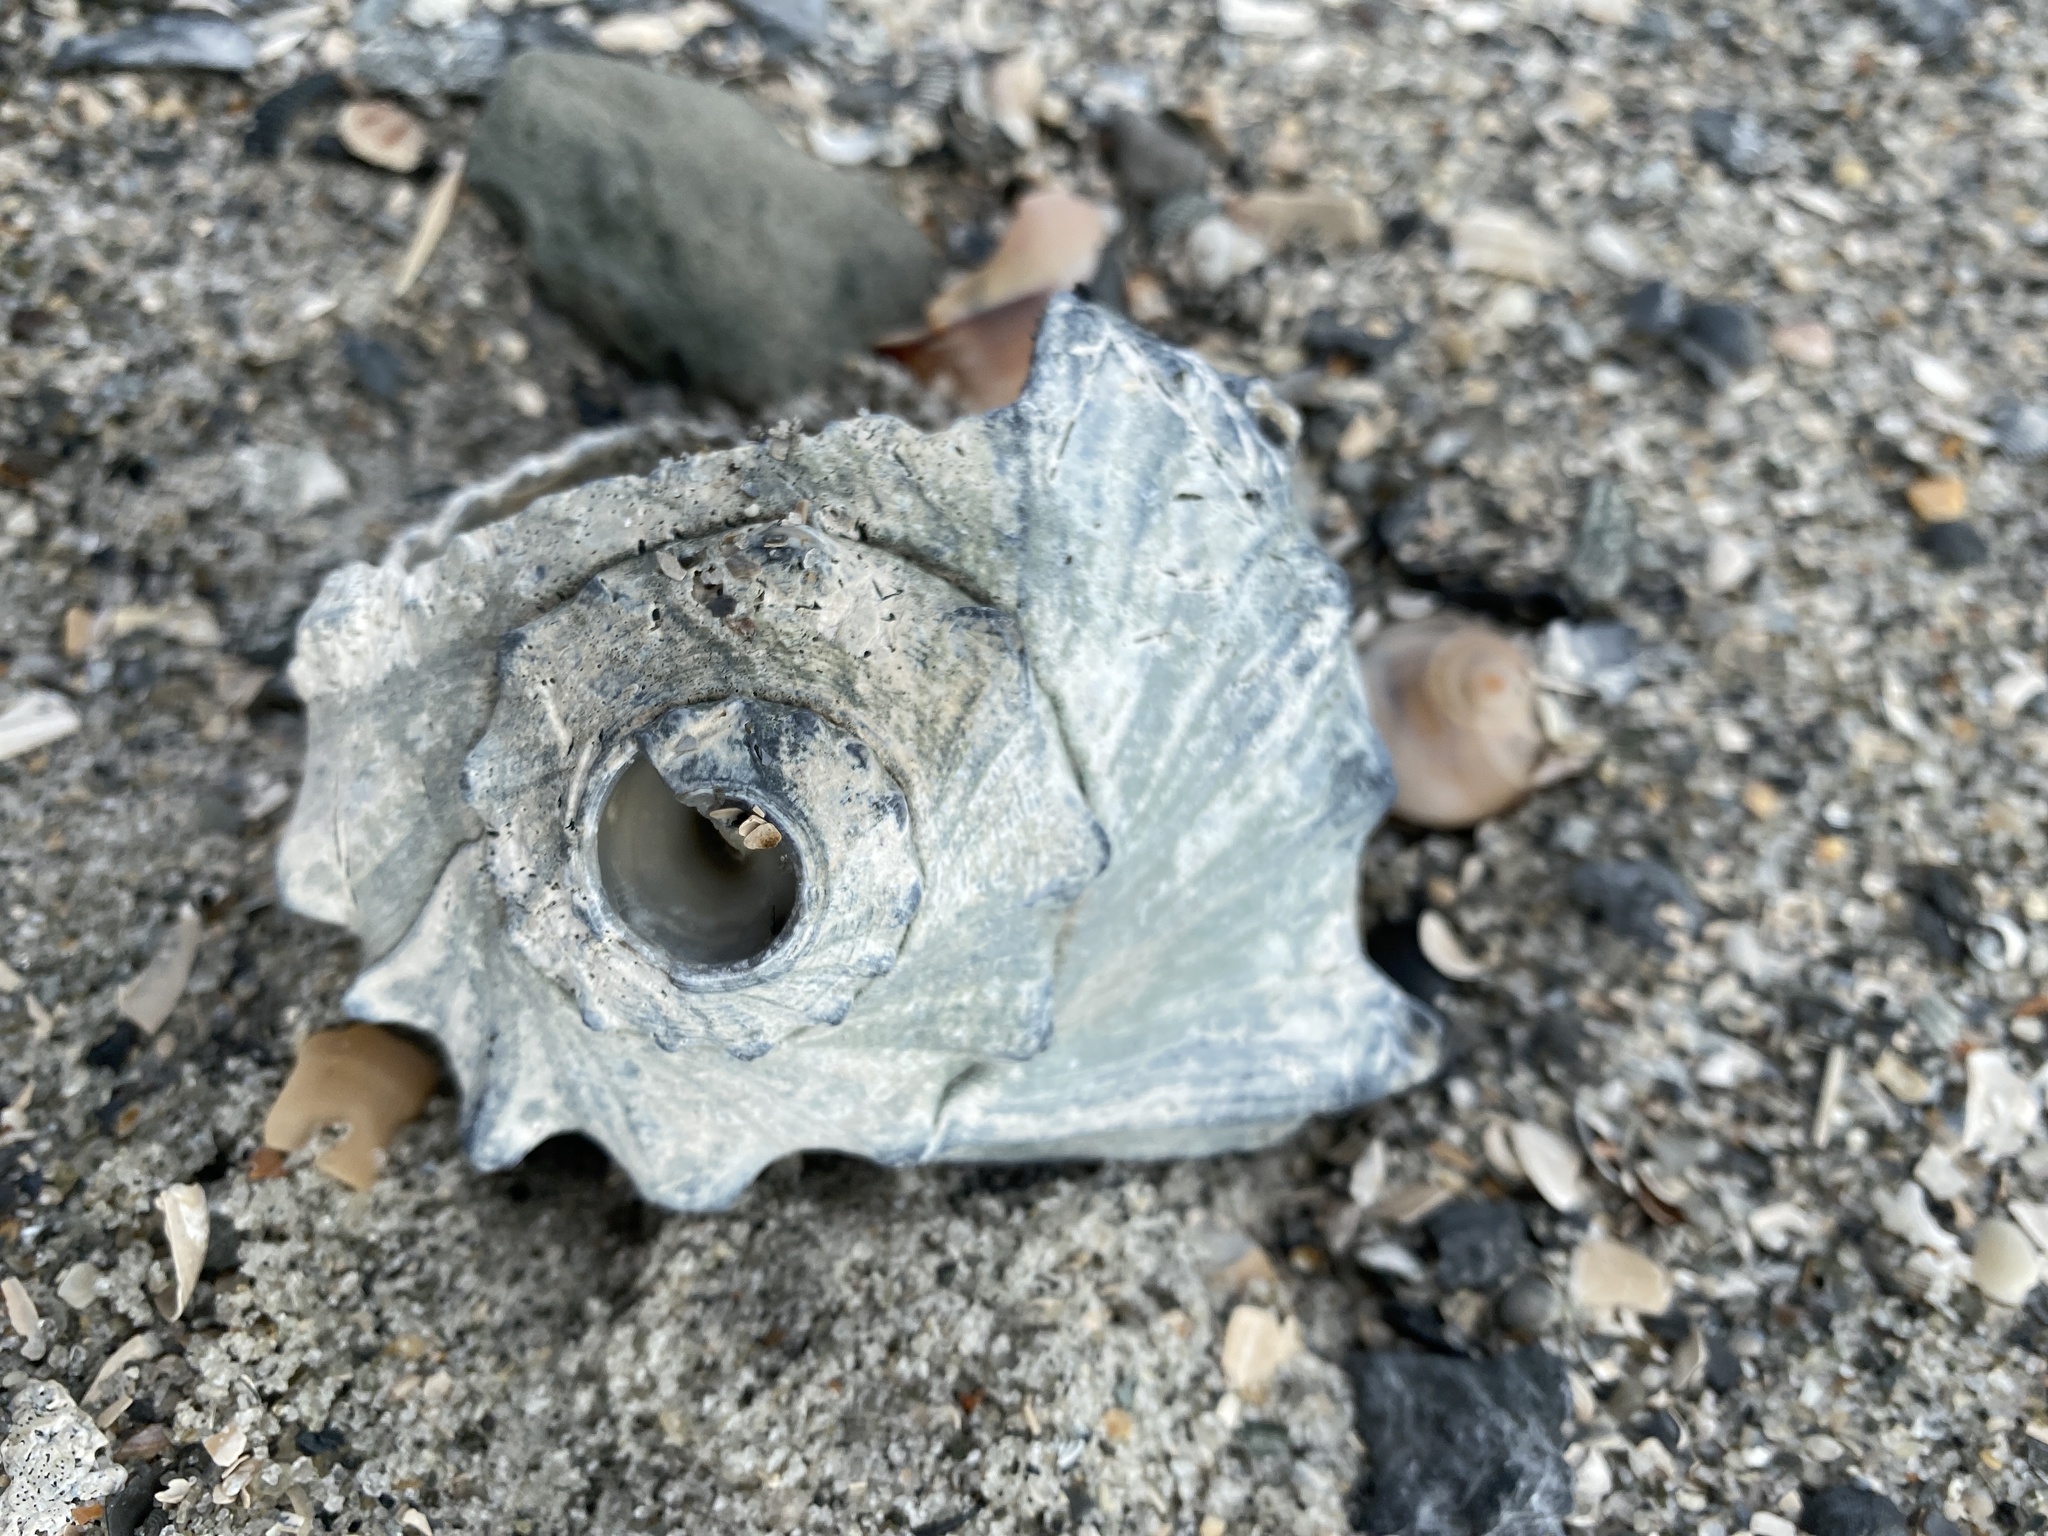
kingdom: Animalia
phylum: Mollusca
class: Gastropoda
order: Neogastropoda
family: Busyconidae
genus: Busycon
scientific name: Busycon carica
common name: Knobbed whelk
